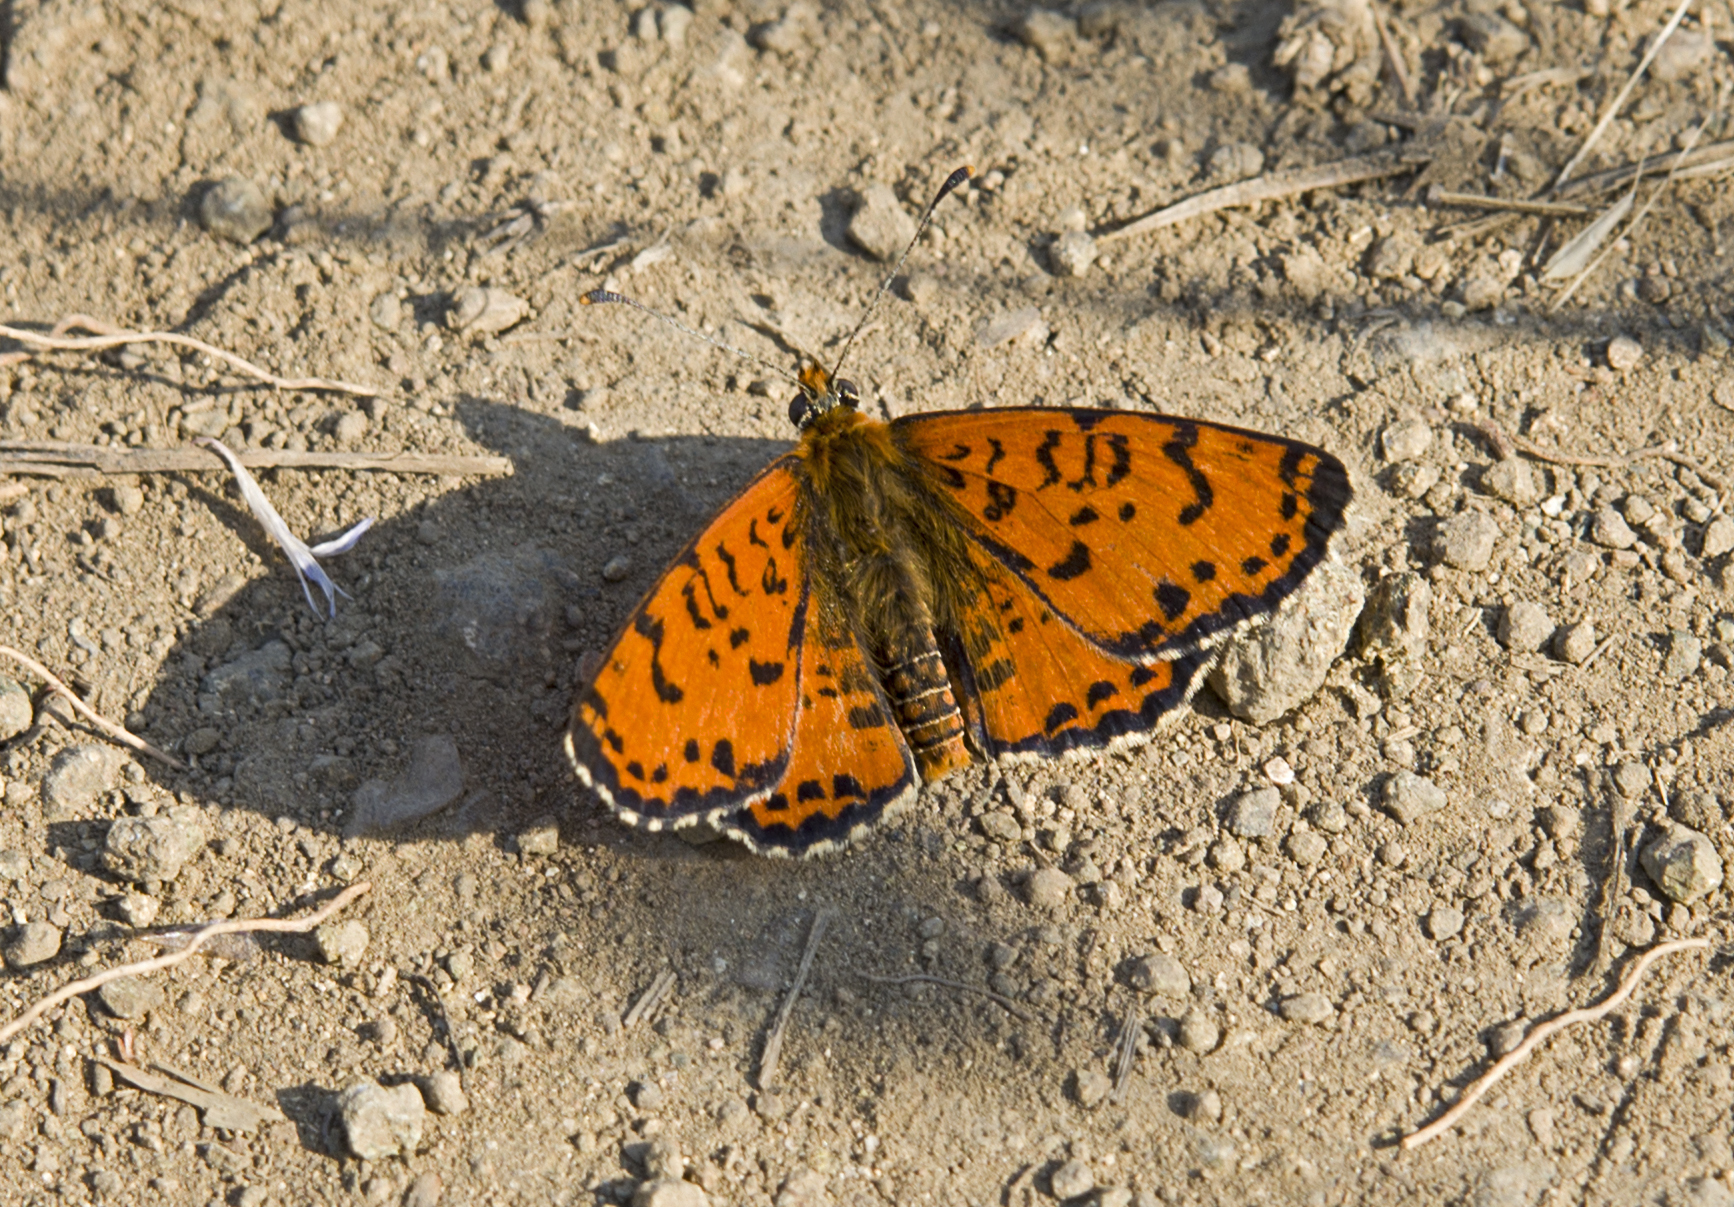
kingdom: Animalia
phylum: Arthropoda
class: Insecta
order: Lepidoptera
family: Nymphalidae
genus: Melitaea
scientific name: Melitaea didyma
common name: Spotted fritillary
